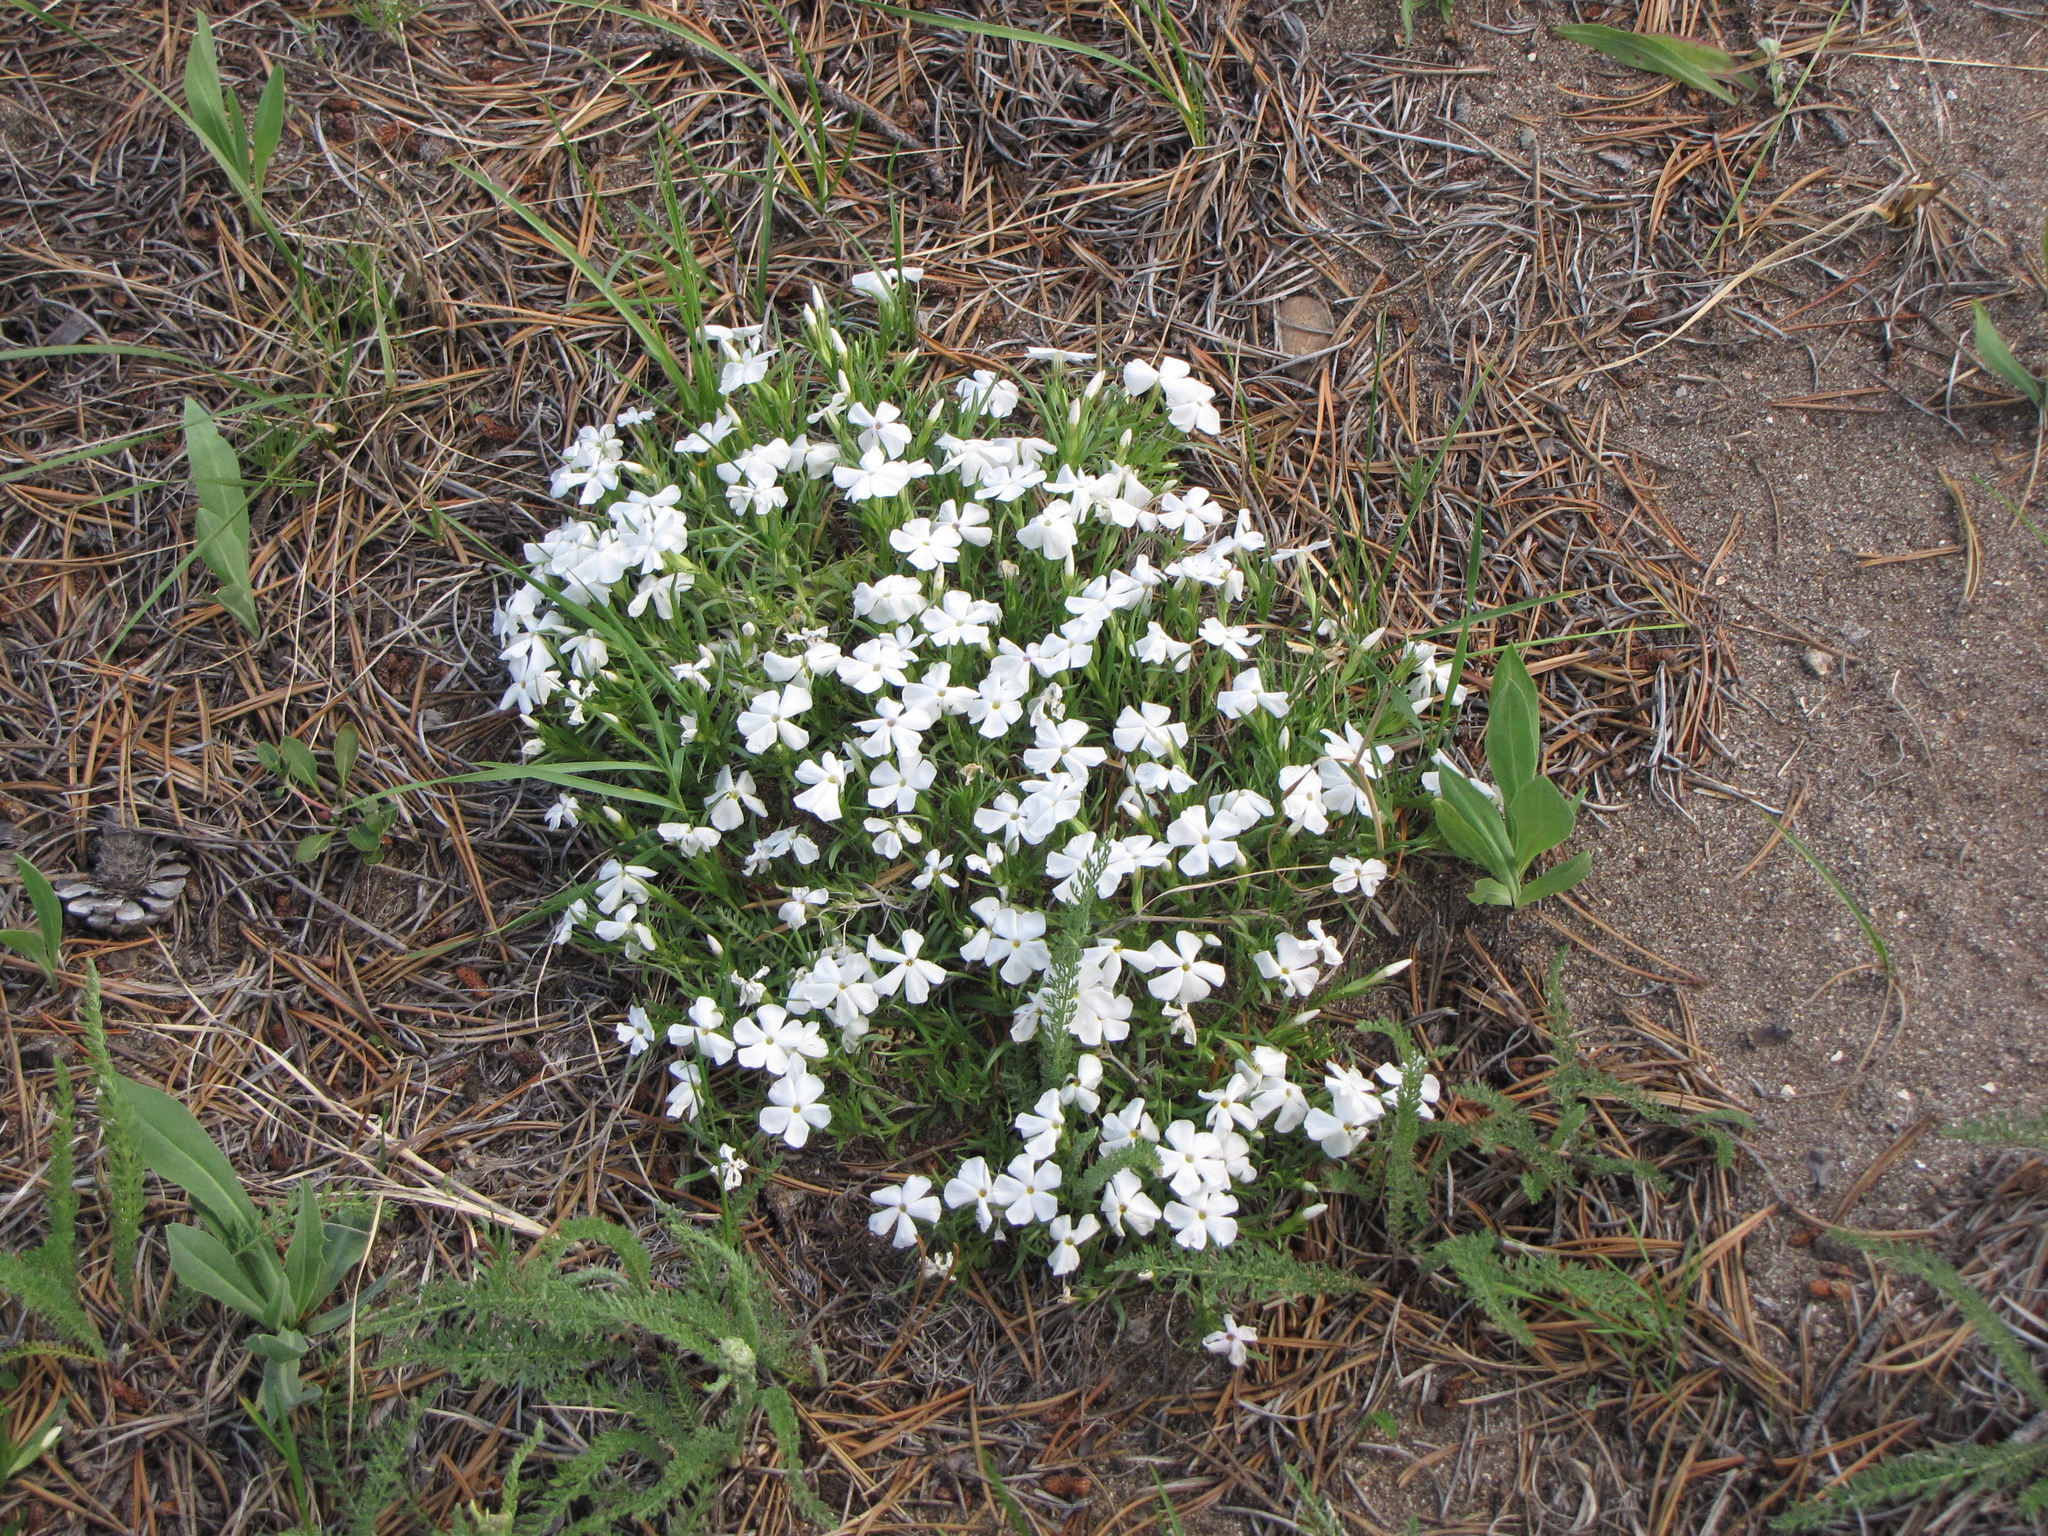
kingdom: Plantae
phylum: Tracheophyta
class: Magnoliopsida
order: Ericales
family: Polemoniaceae
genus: Phlox
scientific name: Phlox multiflora
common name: Rocky mountain phlox
